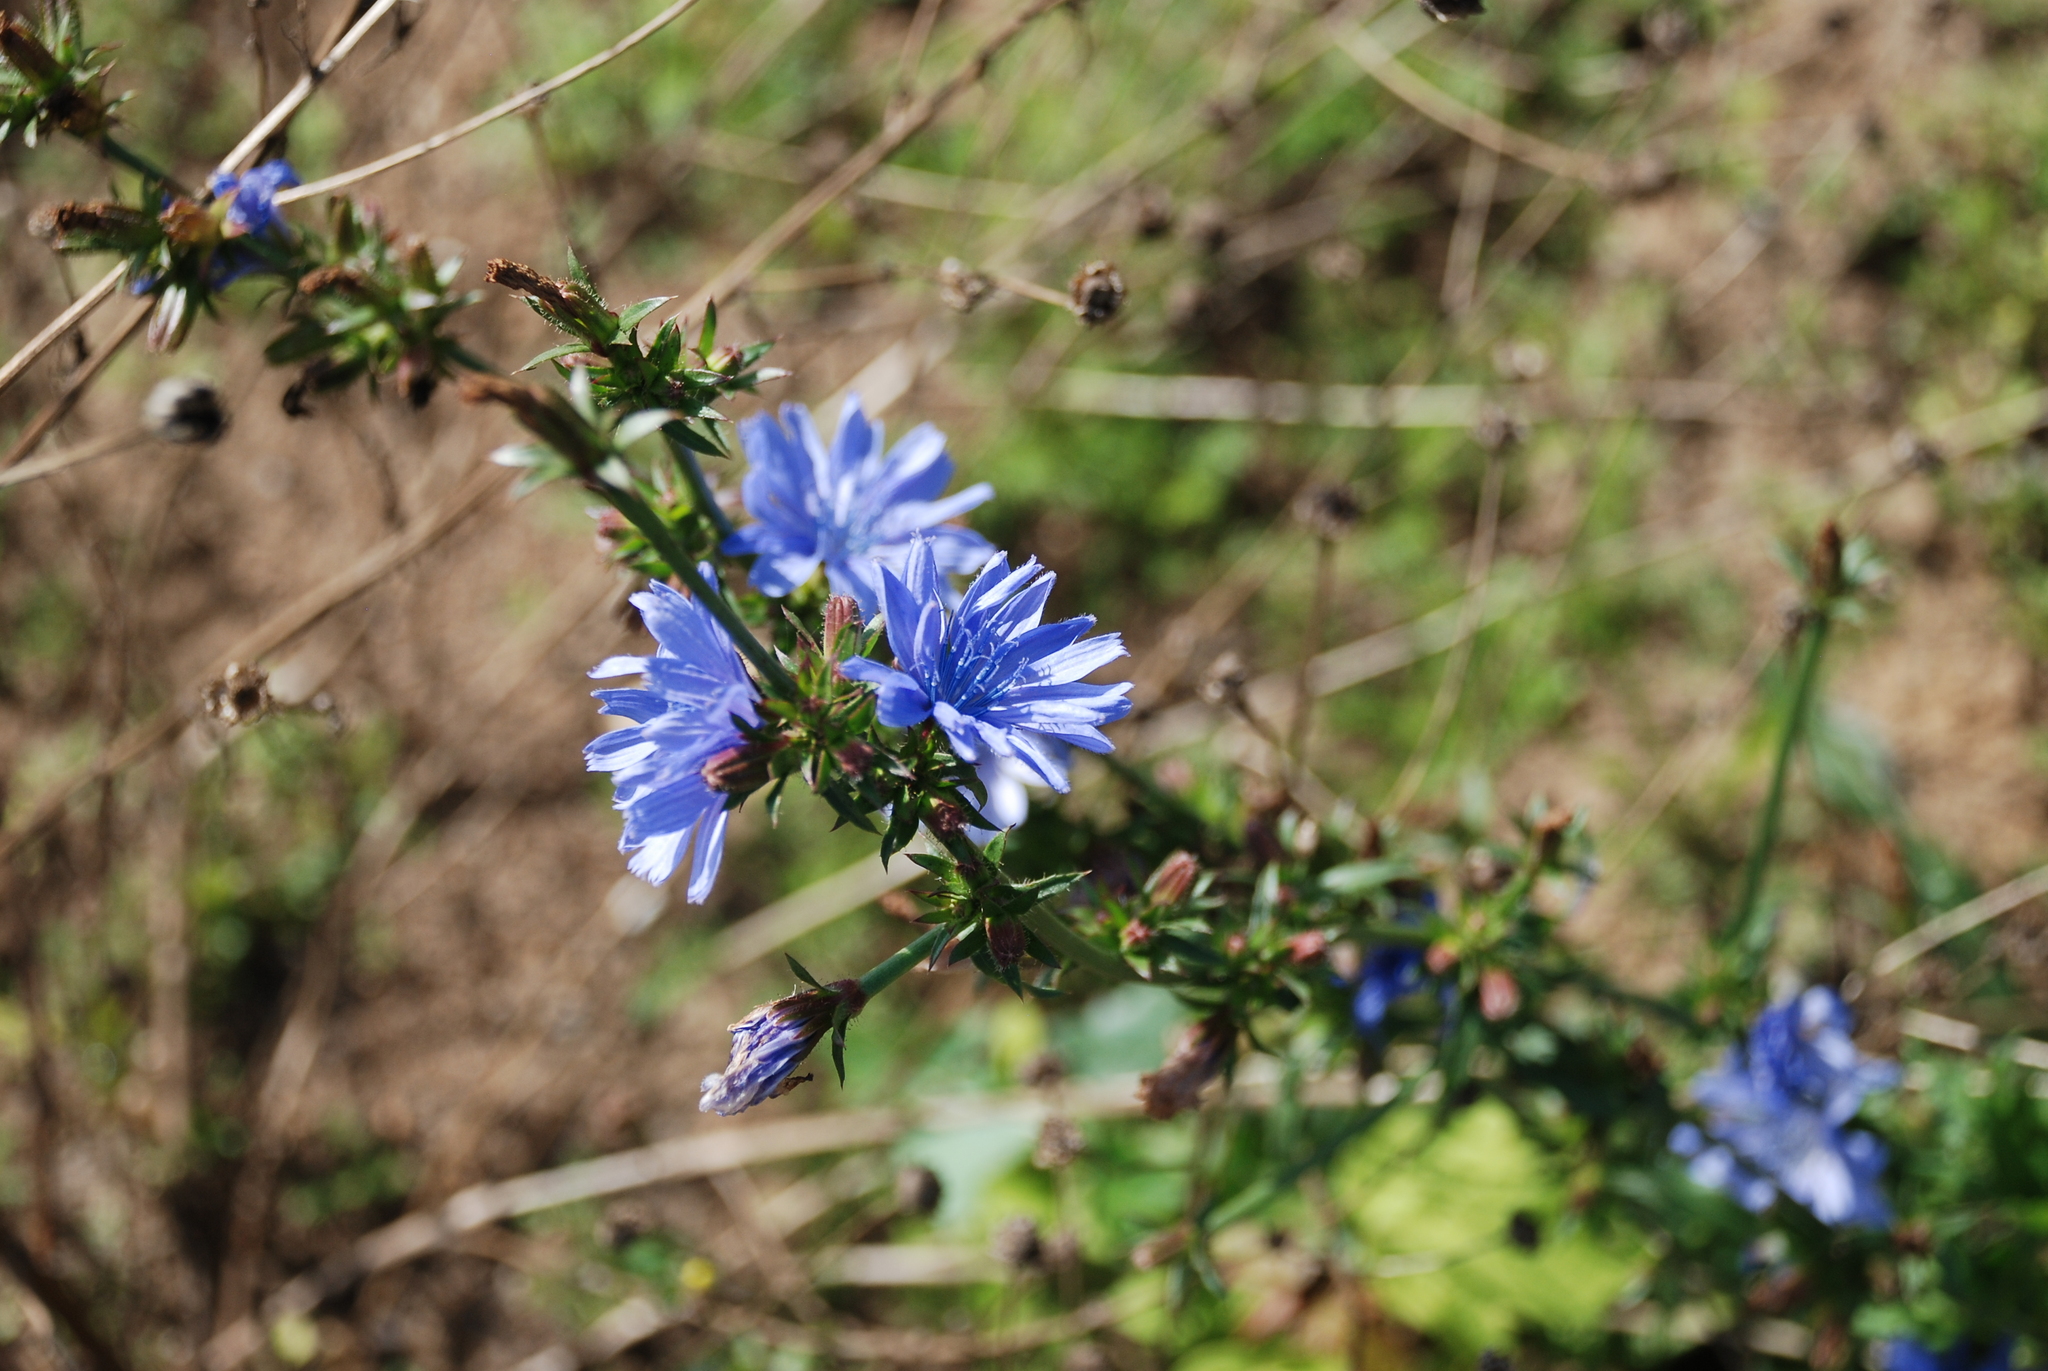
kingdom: Plantae
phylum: Tracheophyta
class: Magnoliopsida
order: Asterales
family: Asteraceae
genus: Cichorium
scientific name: Cichorium intybus
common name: Chicory
